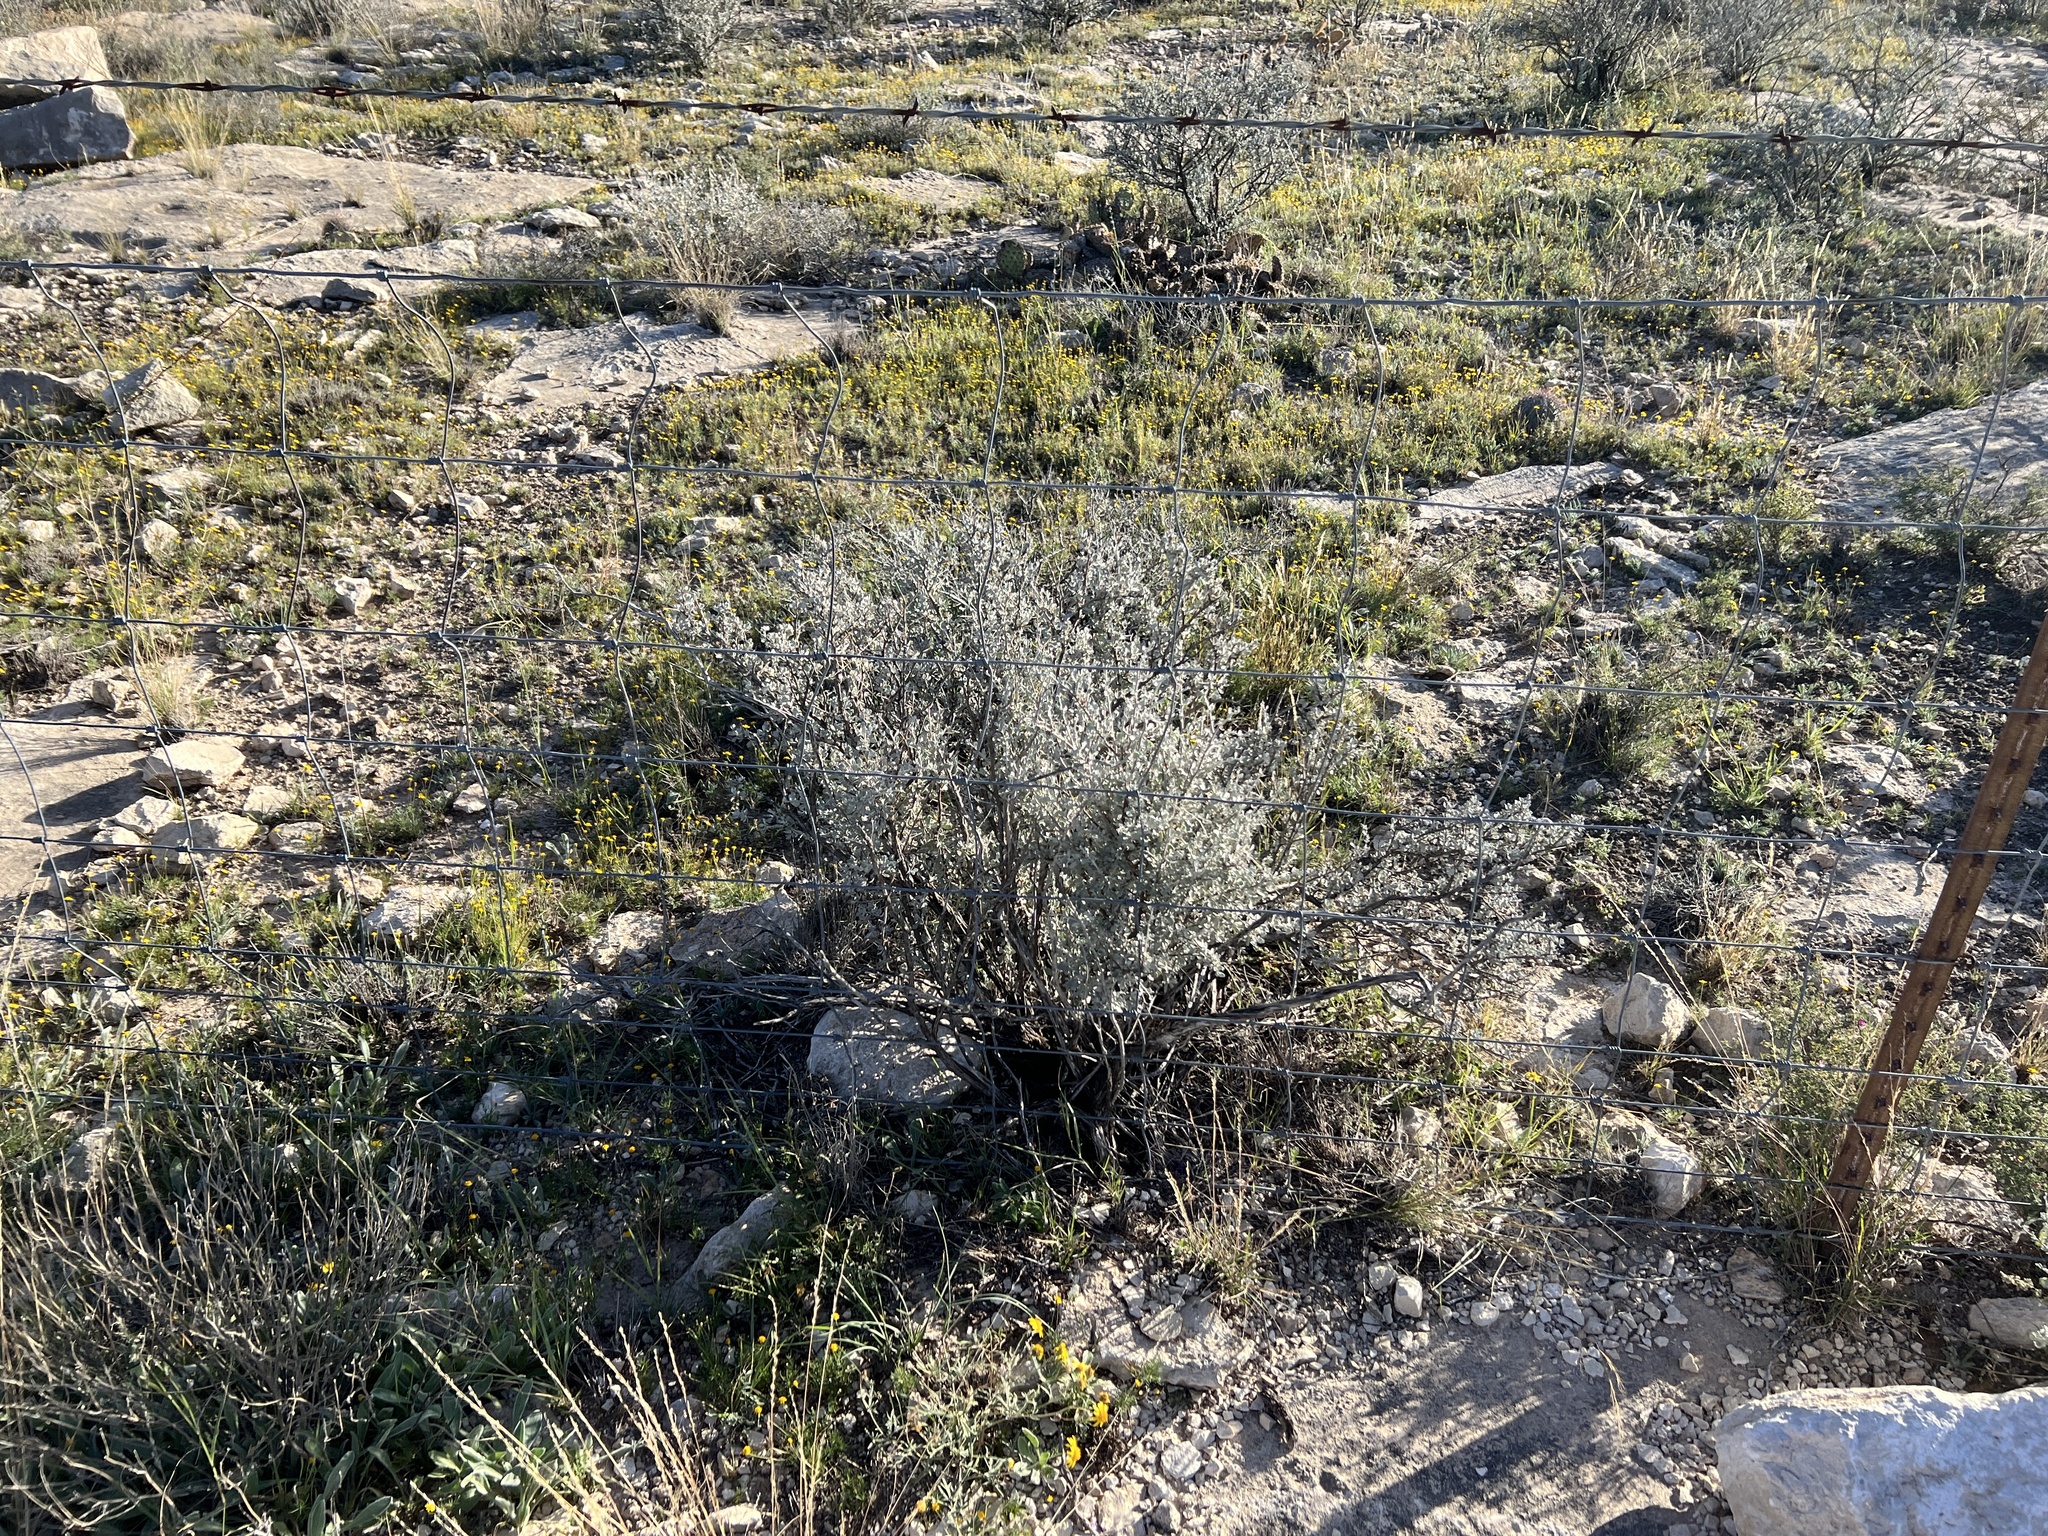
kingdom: Plantae
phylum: Tracheophyta
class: Magnoliopsida
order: Lamiales
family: Scrophulariaceae
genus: Leucophyllum
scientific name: Leucophyllum minus
